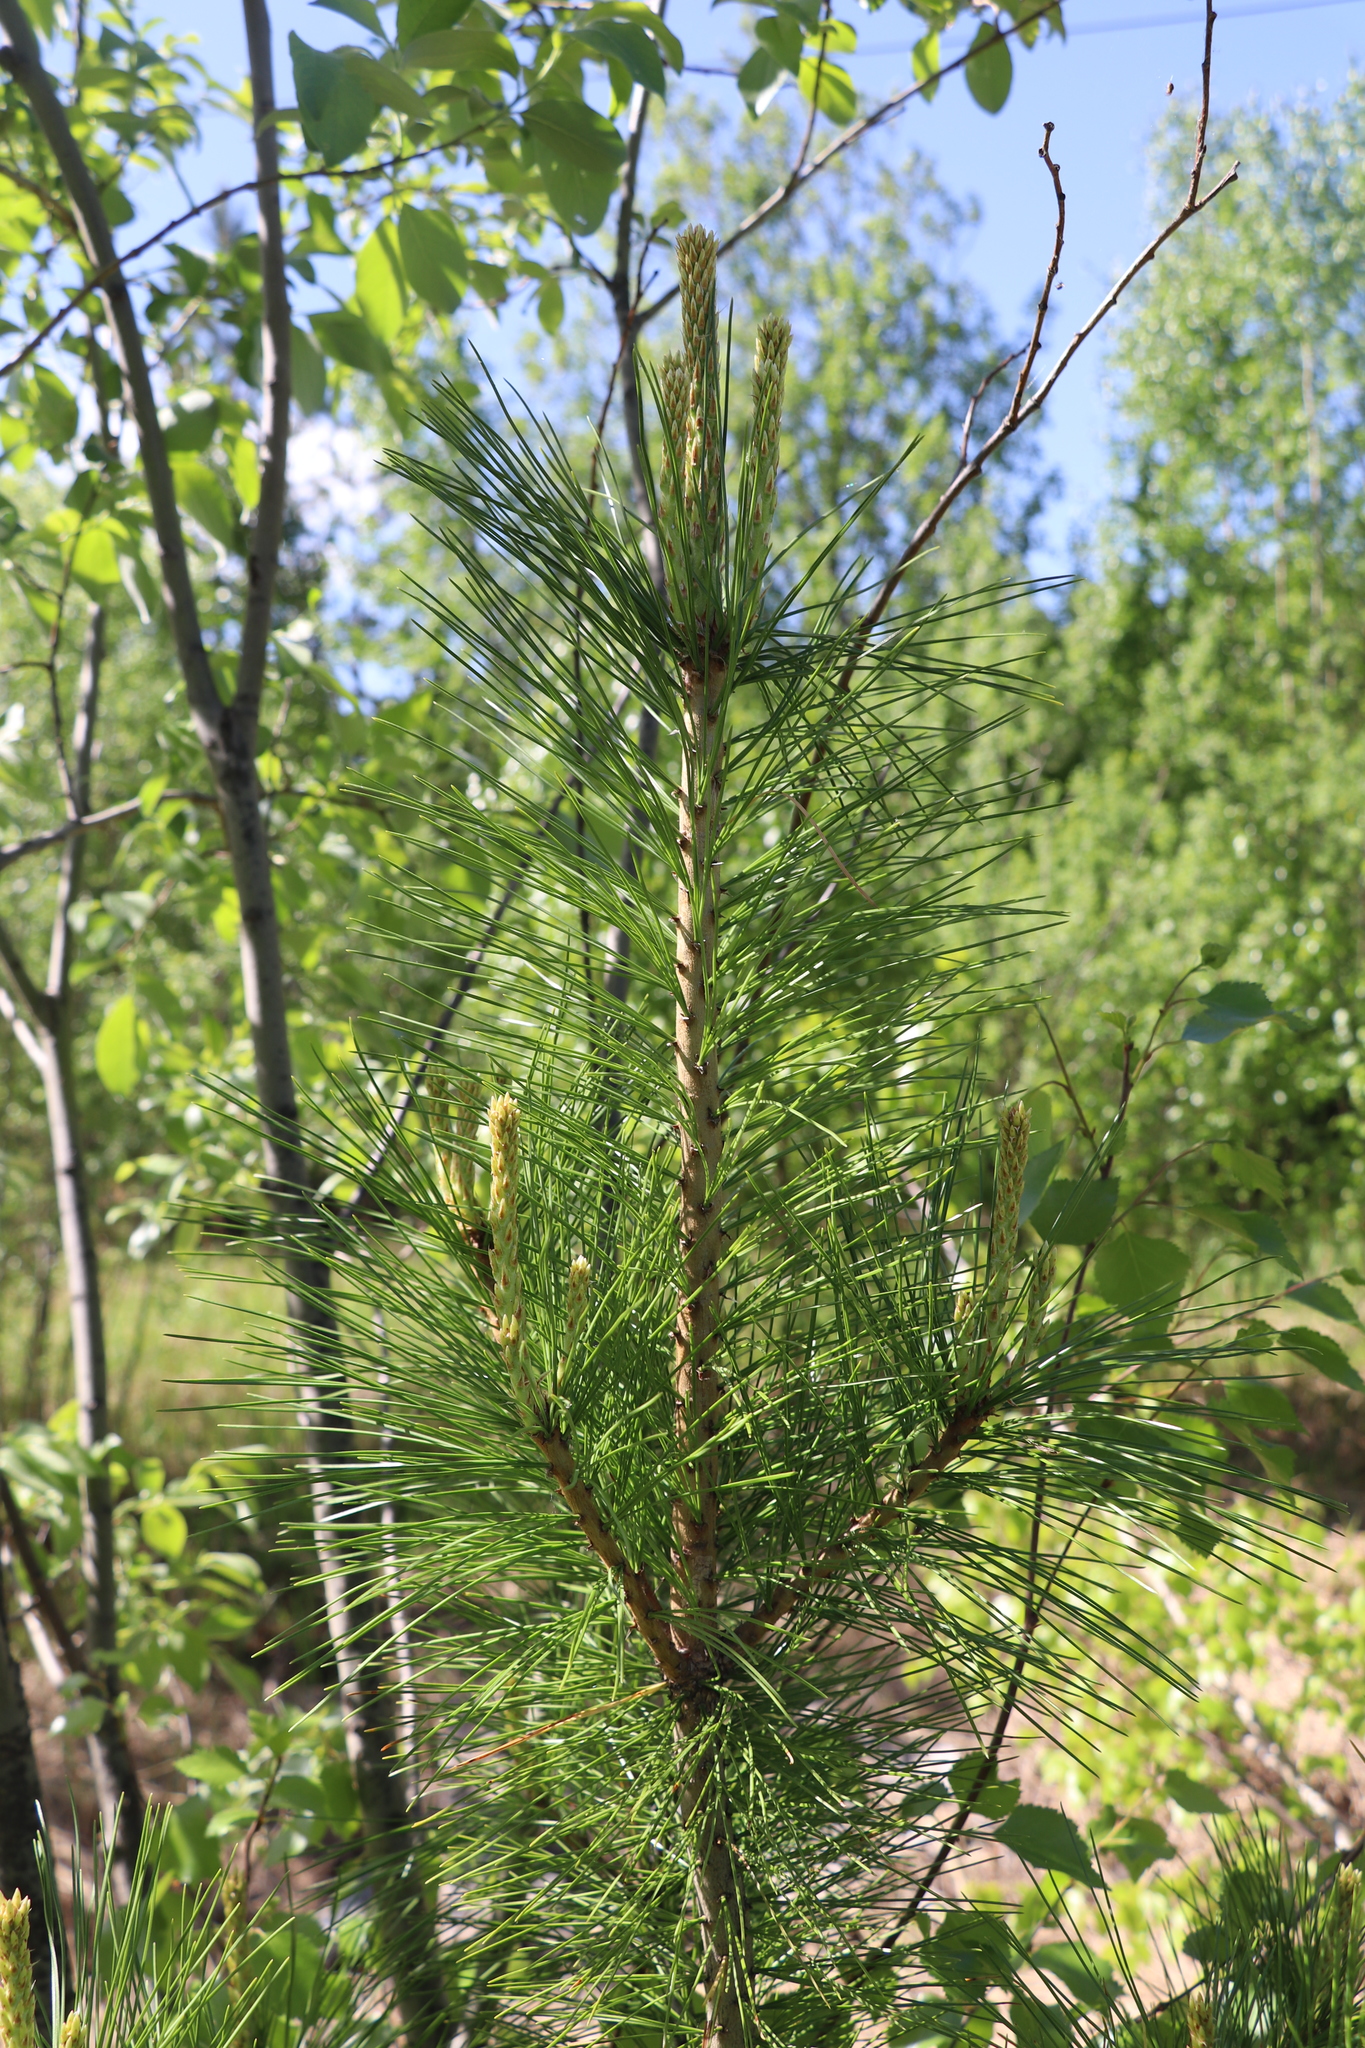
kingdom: Plantae
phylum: Tracheophyta
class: Pinopsida
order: Pinales
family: Pinaceae
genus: Pinus
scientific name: Pinus sibirica
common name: Siberian pine
